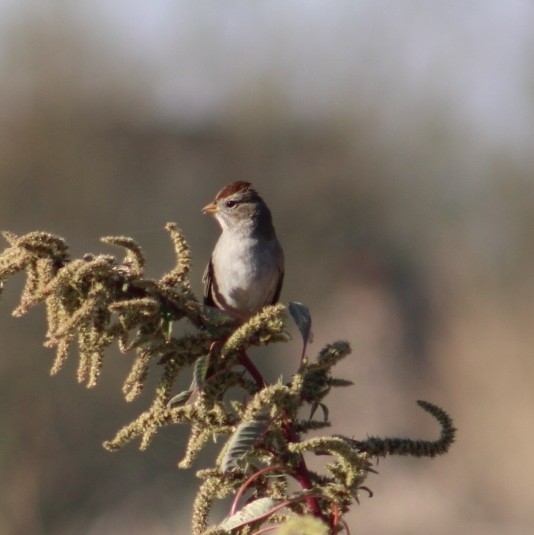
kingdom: Animalia
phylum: Chordata
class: Aves
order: Passeriformes
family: Passerellidae
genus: Zonotrichia
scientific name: Zonotrichia leucophrys
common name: White-crowned sparrow
